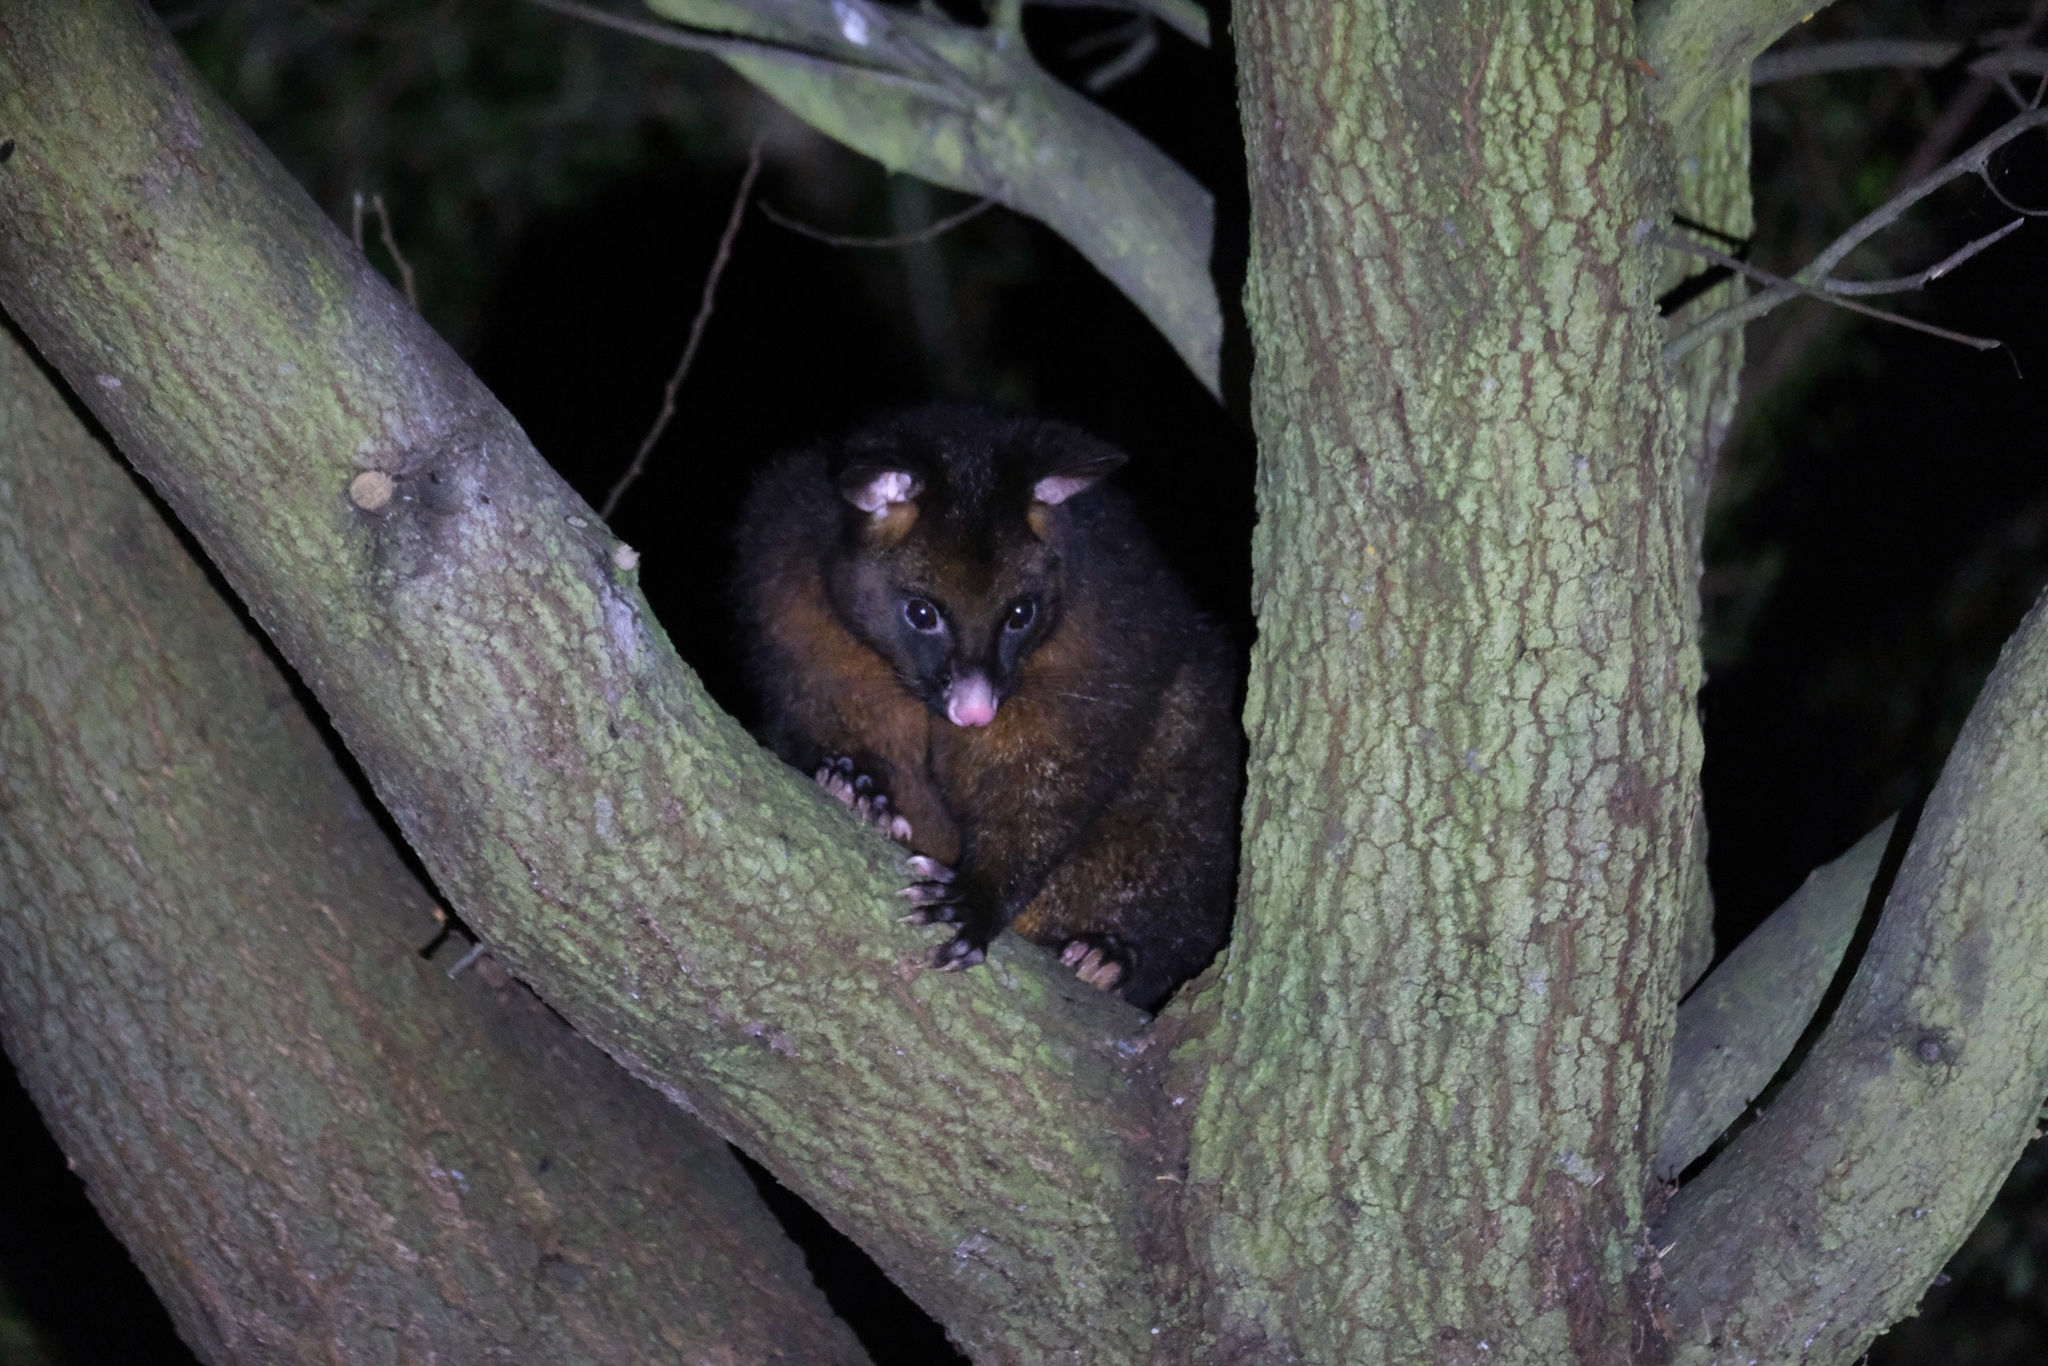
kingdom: Animalia
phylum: Chordata
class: Mammalia
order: Diprotodontia
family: Phalangeridae
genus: Trichosurus
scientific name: Trichosurus vulpecula
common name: Common brushtail
